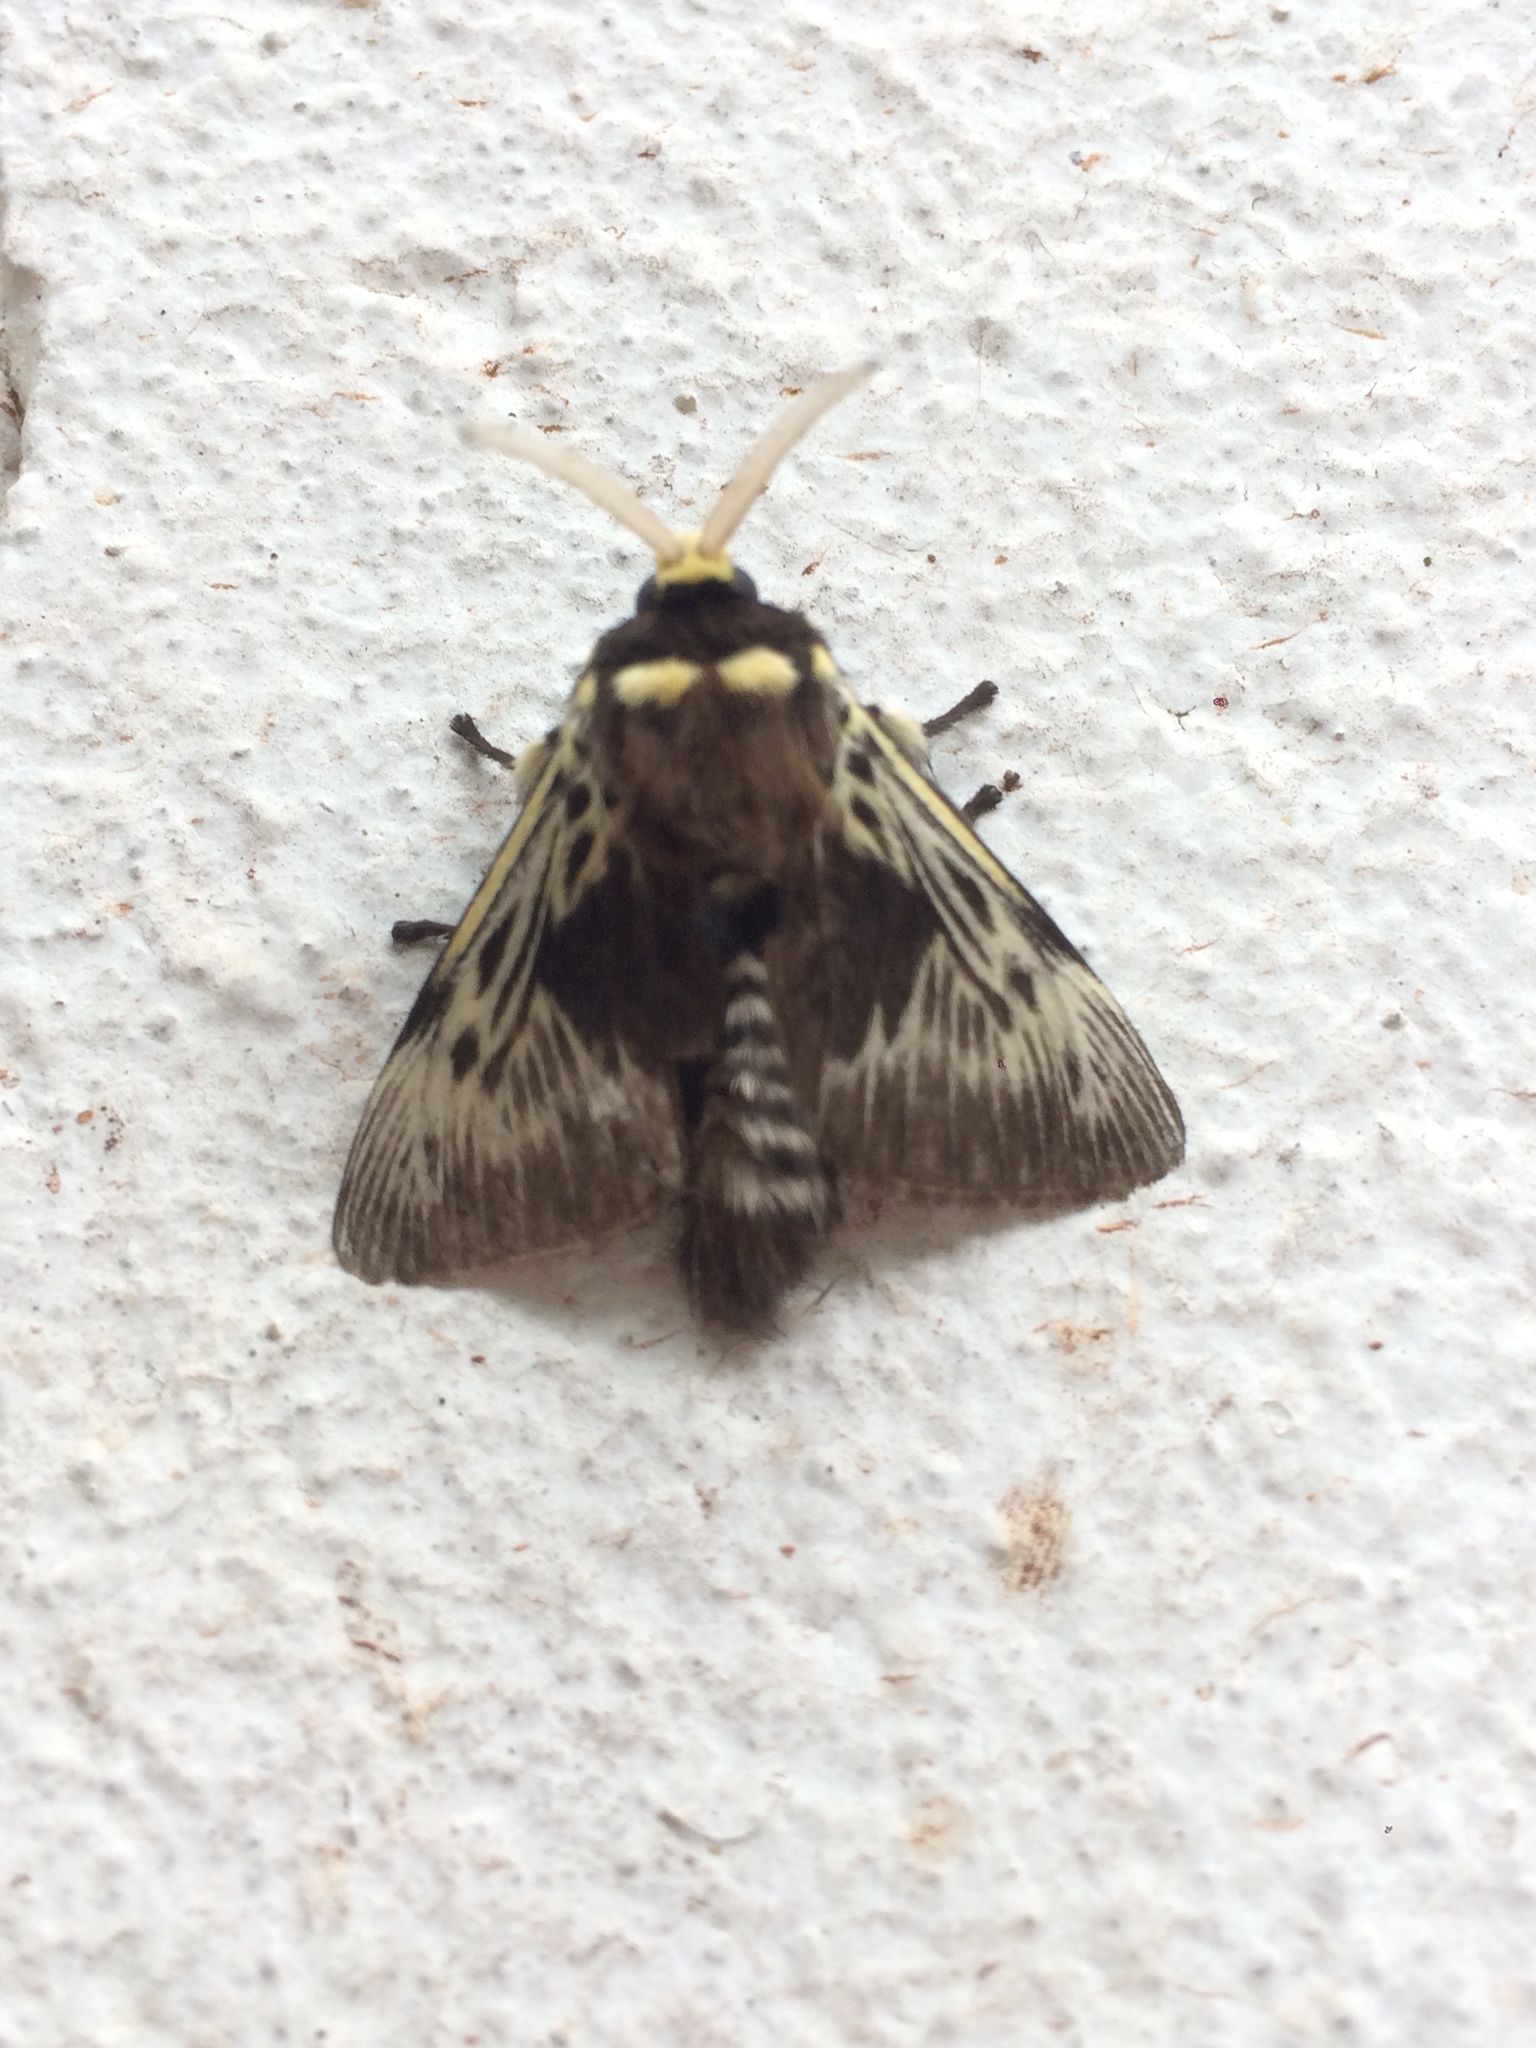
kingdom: Animalia
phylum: Arthropoda
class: Insecta
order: Lepidoptera
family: Megalopygidae
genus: Megalopyge
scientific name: Megalopyge albicollis
